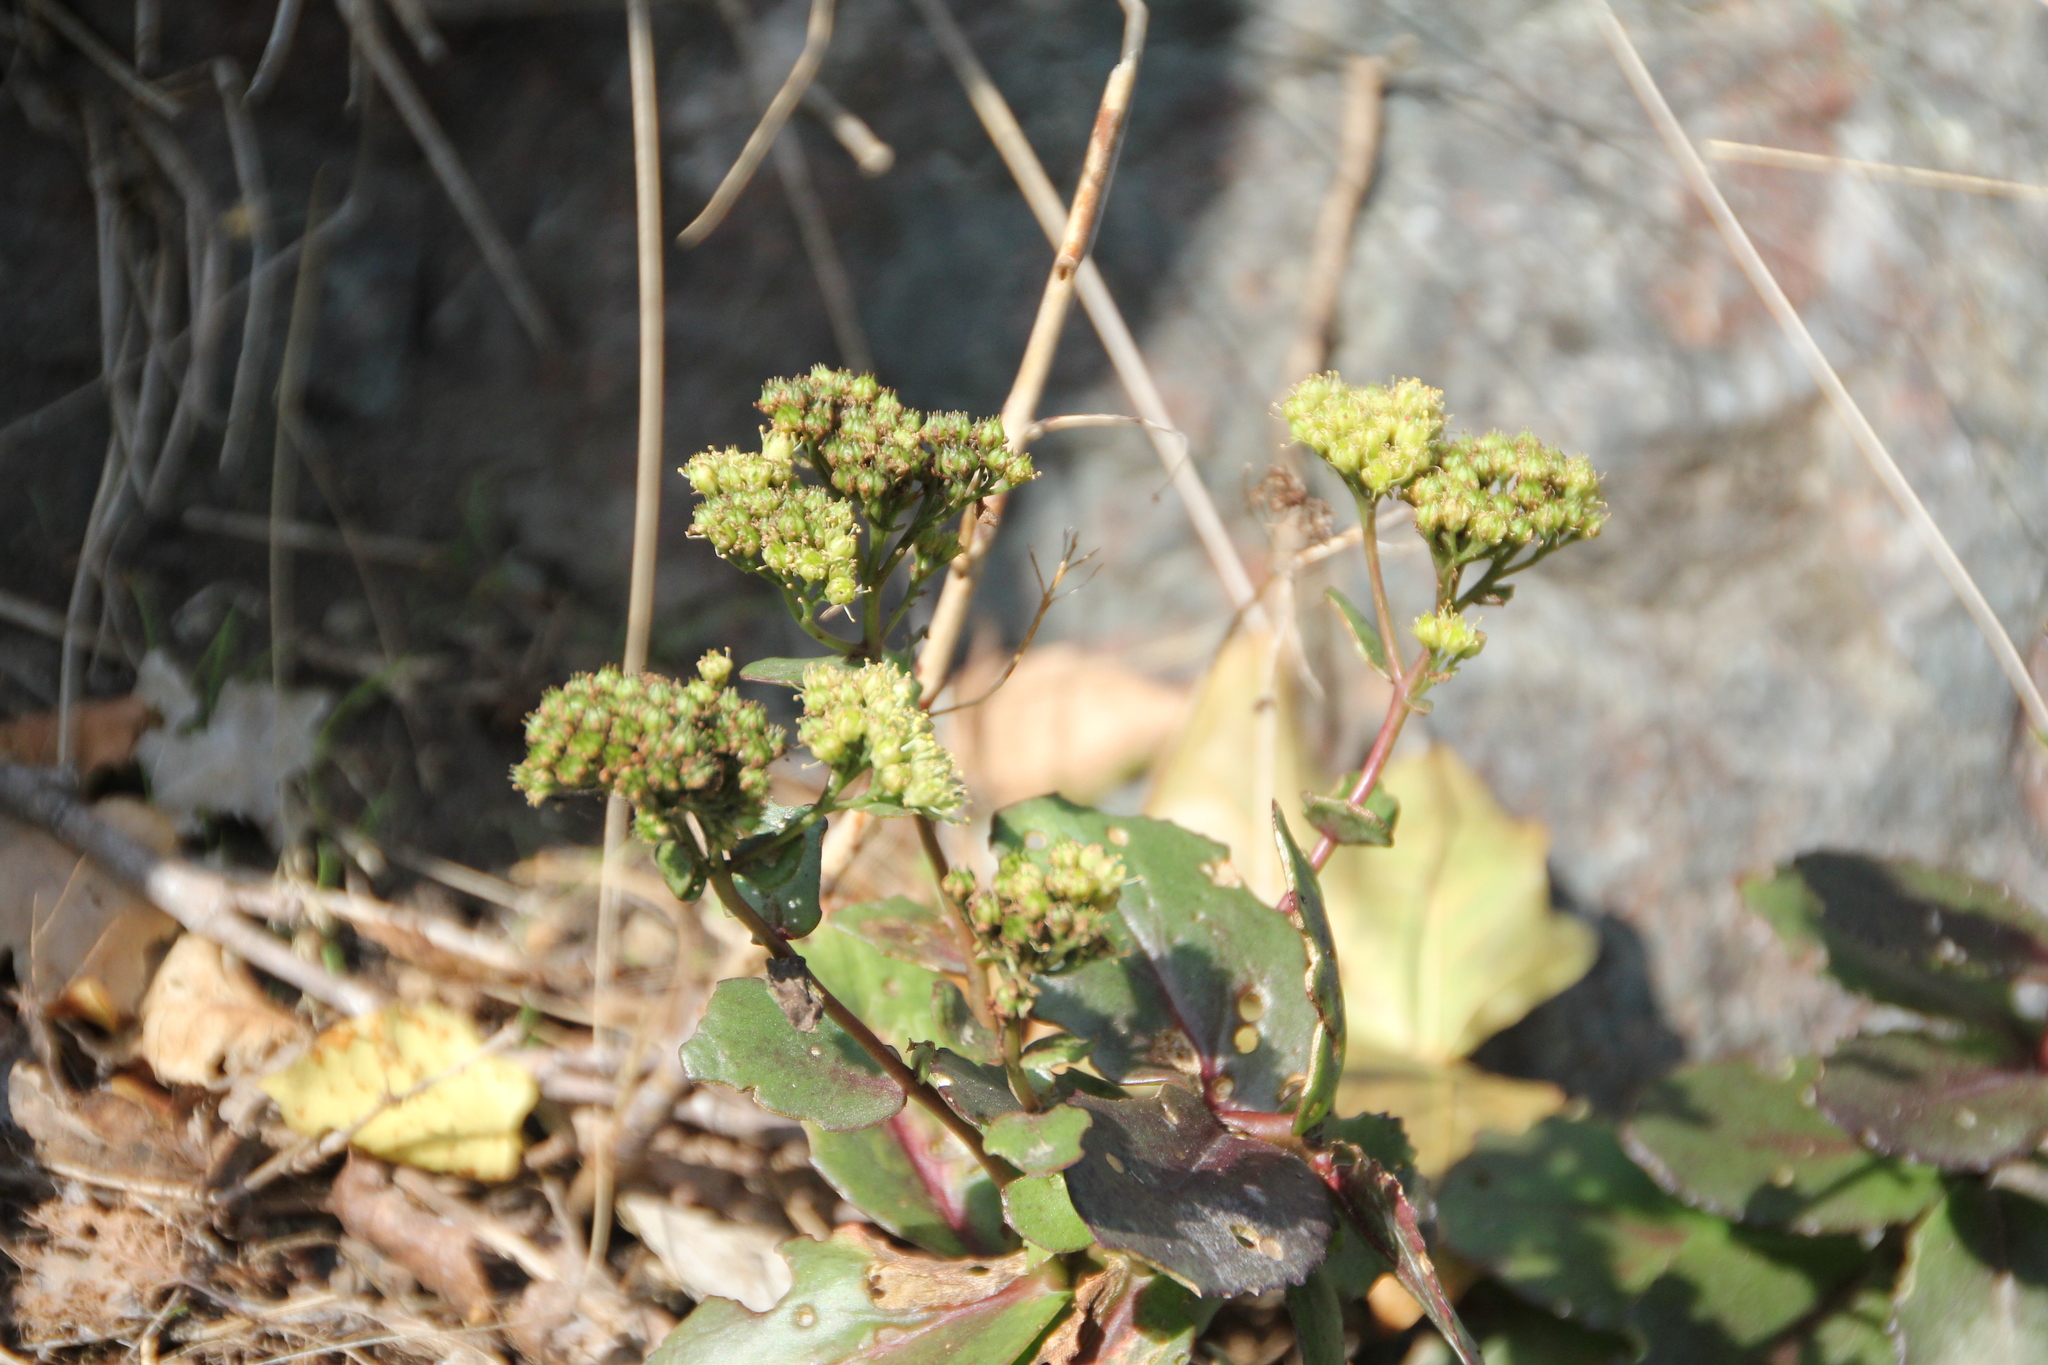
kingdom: Plantae
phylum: Tracheophyta
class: Magnoliopsida
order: Saxifragales
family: Crassulaceae
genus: Hylotelephium
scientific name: Hylotelephium maximum
